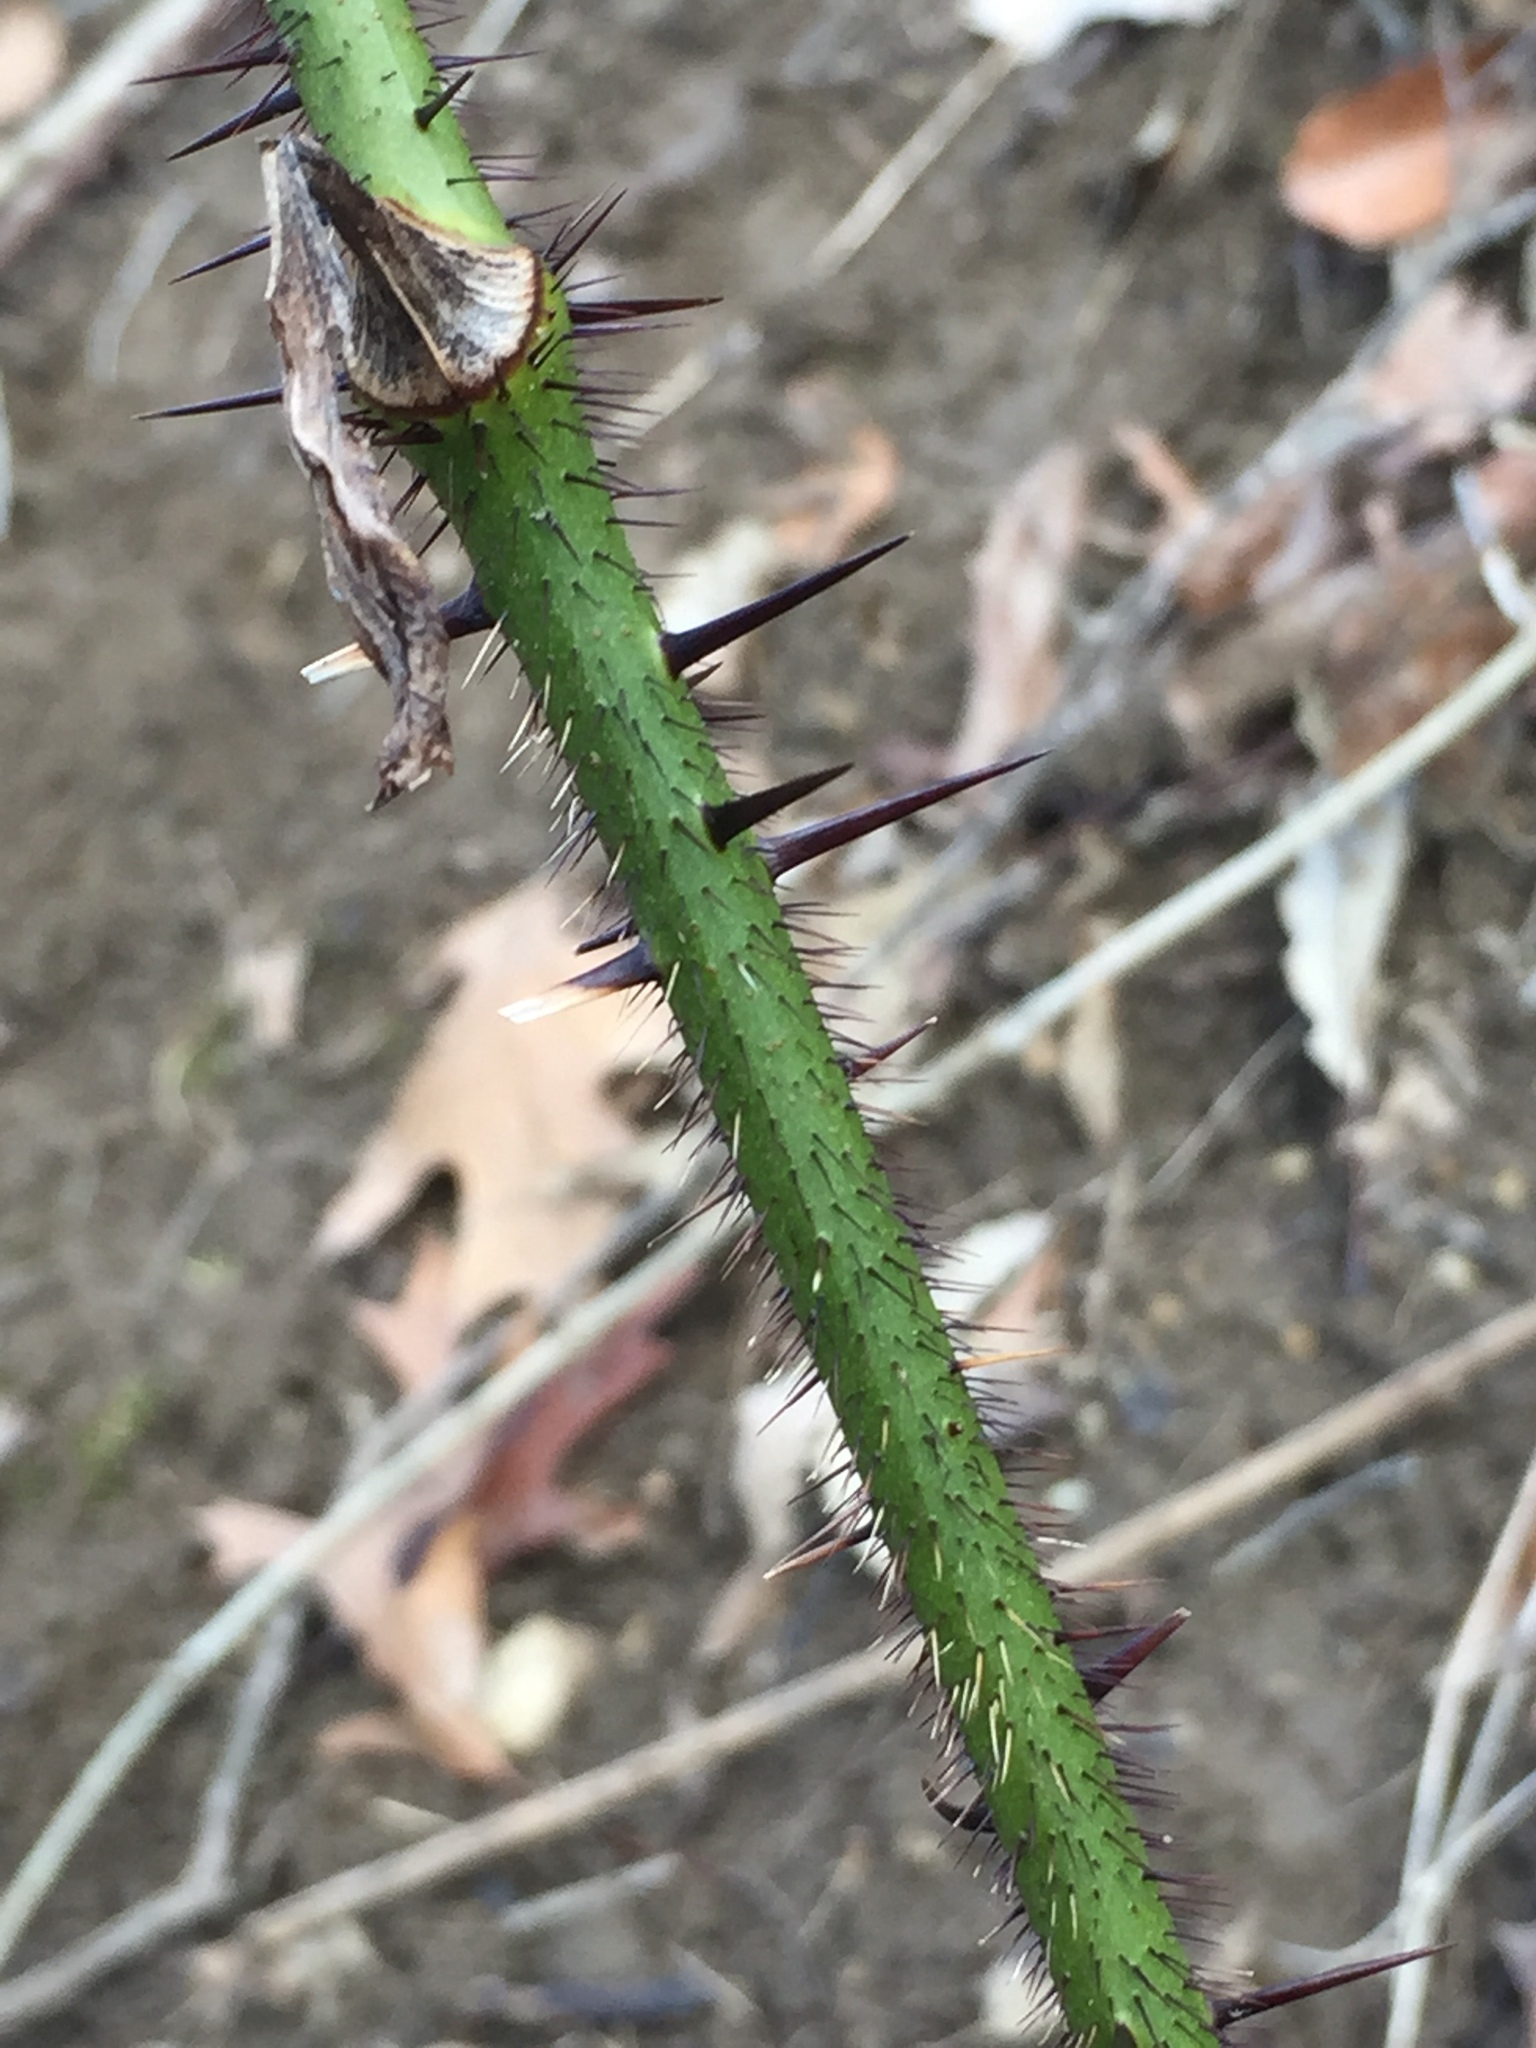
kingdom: Plantae
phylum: Tracheophyta
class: Liliopsida
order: Liliales
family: Smilacaceae
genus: Smilax
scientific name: Smilax tamnoides
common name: Hellfetter
